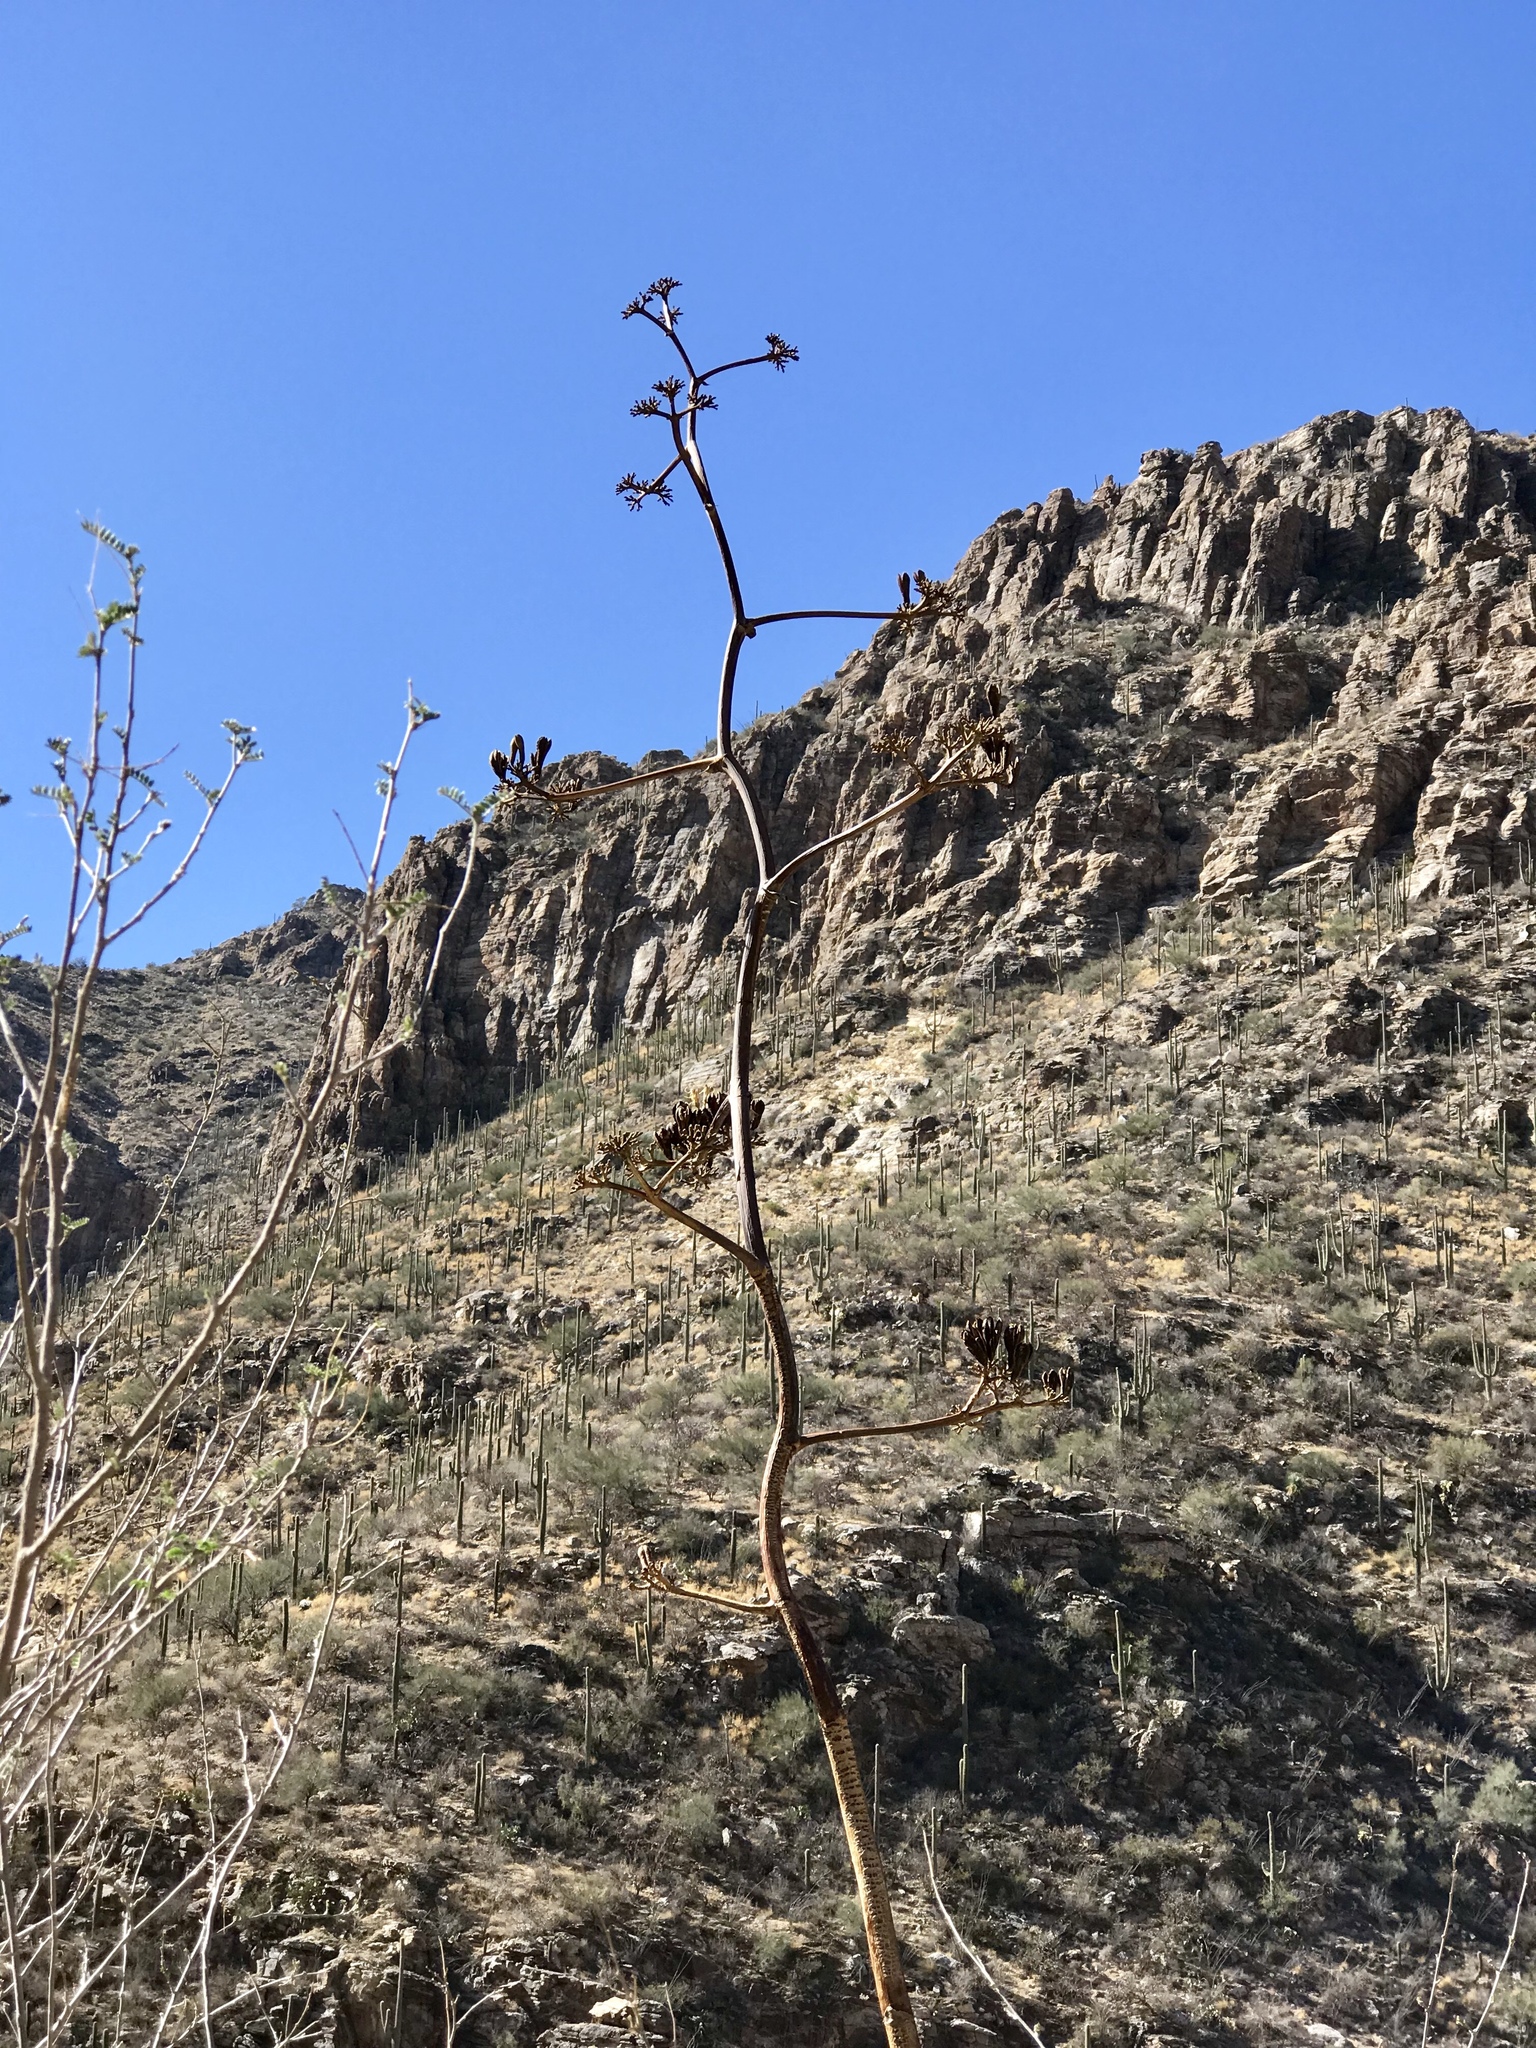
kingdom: Plantae
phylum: Tracheophyta
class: Liliopsida
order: Asparagales
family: Asparagaceae
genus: Agave
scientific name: Agave palmeri
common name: Palmer agave
